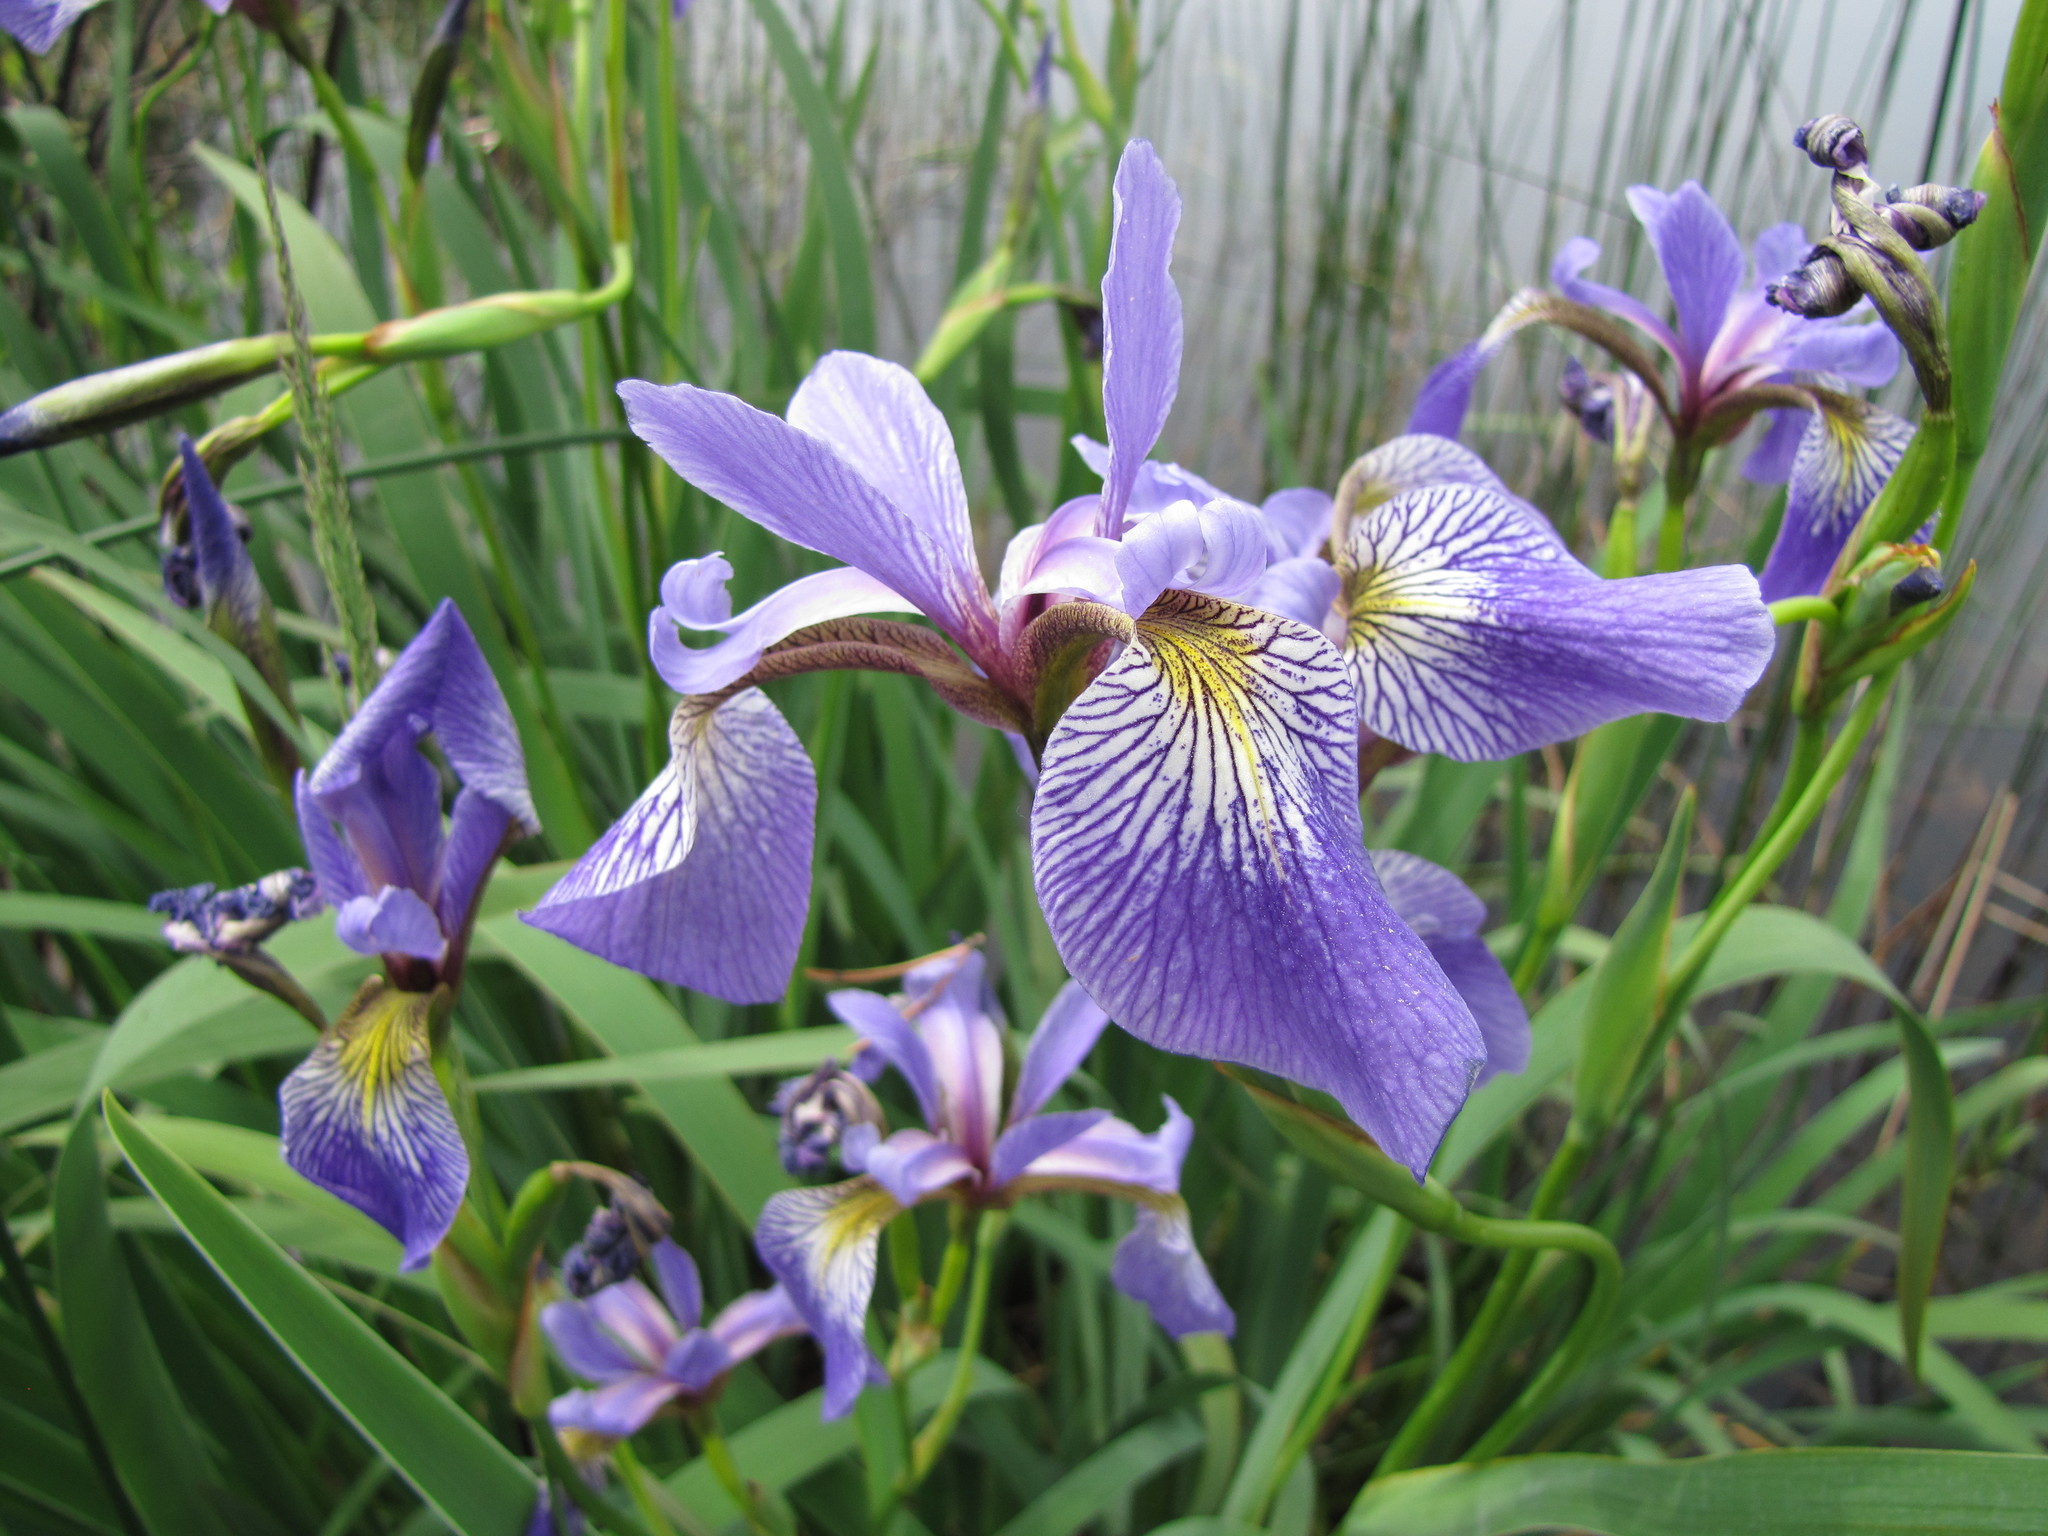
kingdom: Plantae
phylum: Tracheophyta
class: Liliopsida
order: Asparagales
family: Iridaceae
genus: Iris
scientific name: Iris versicolor
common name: Purple iris
